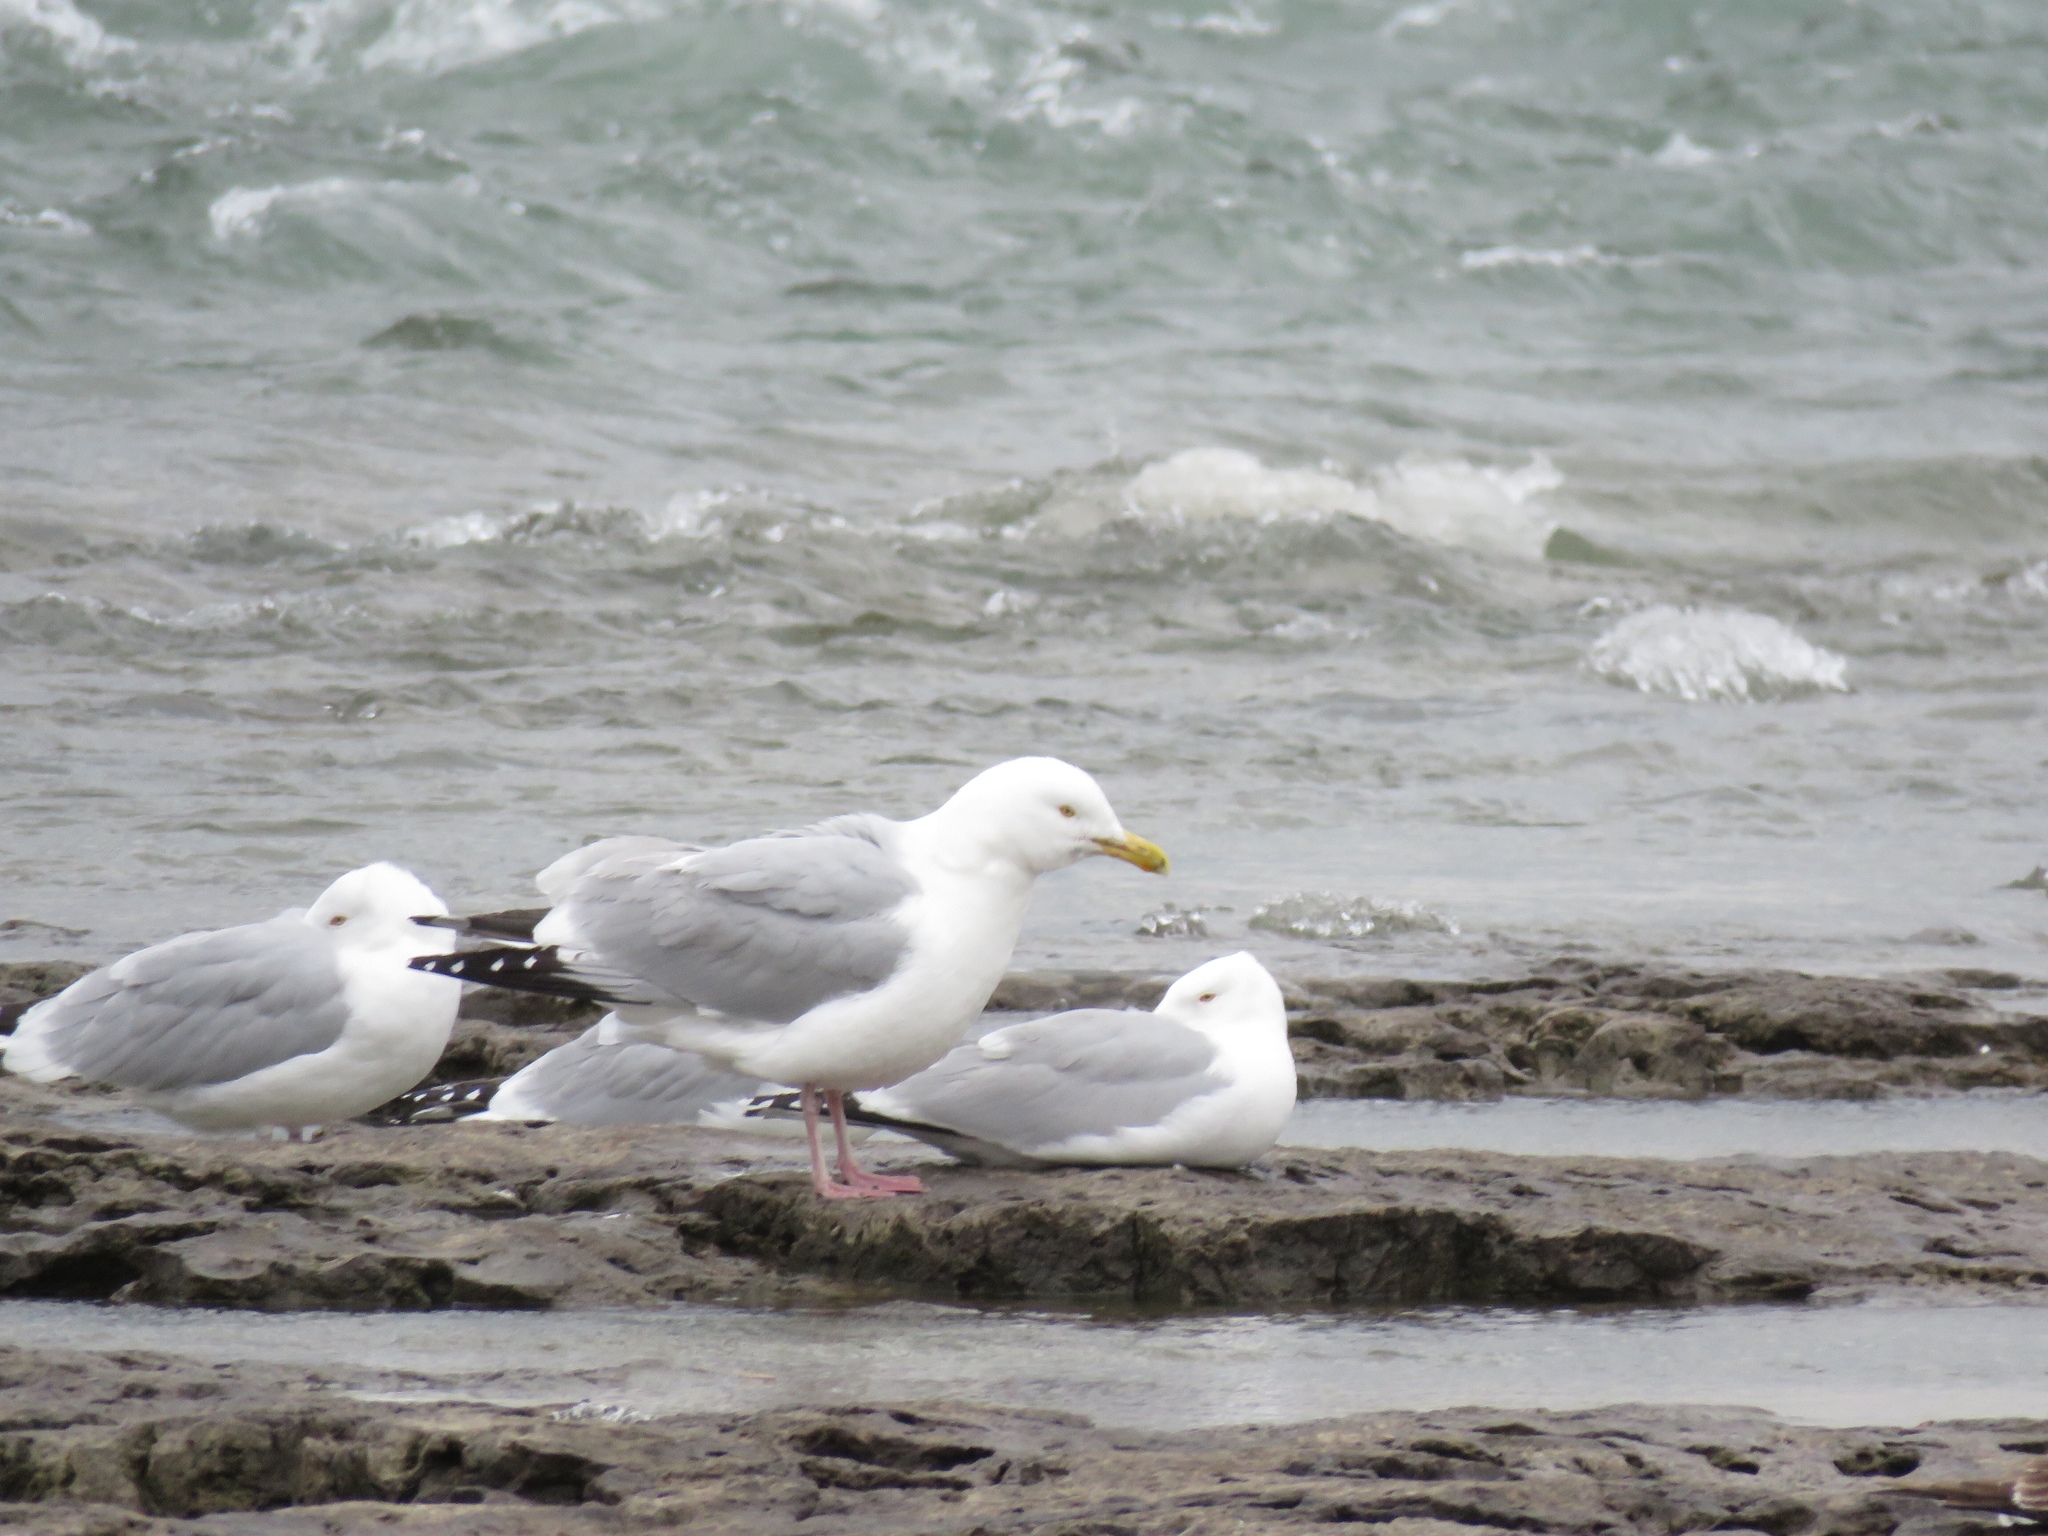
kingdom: Animalia
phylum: Chordata
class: Aves
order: Charadriiformes
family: Laridae
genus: Larus
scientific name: Larus argentatus
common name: Herring gull
